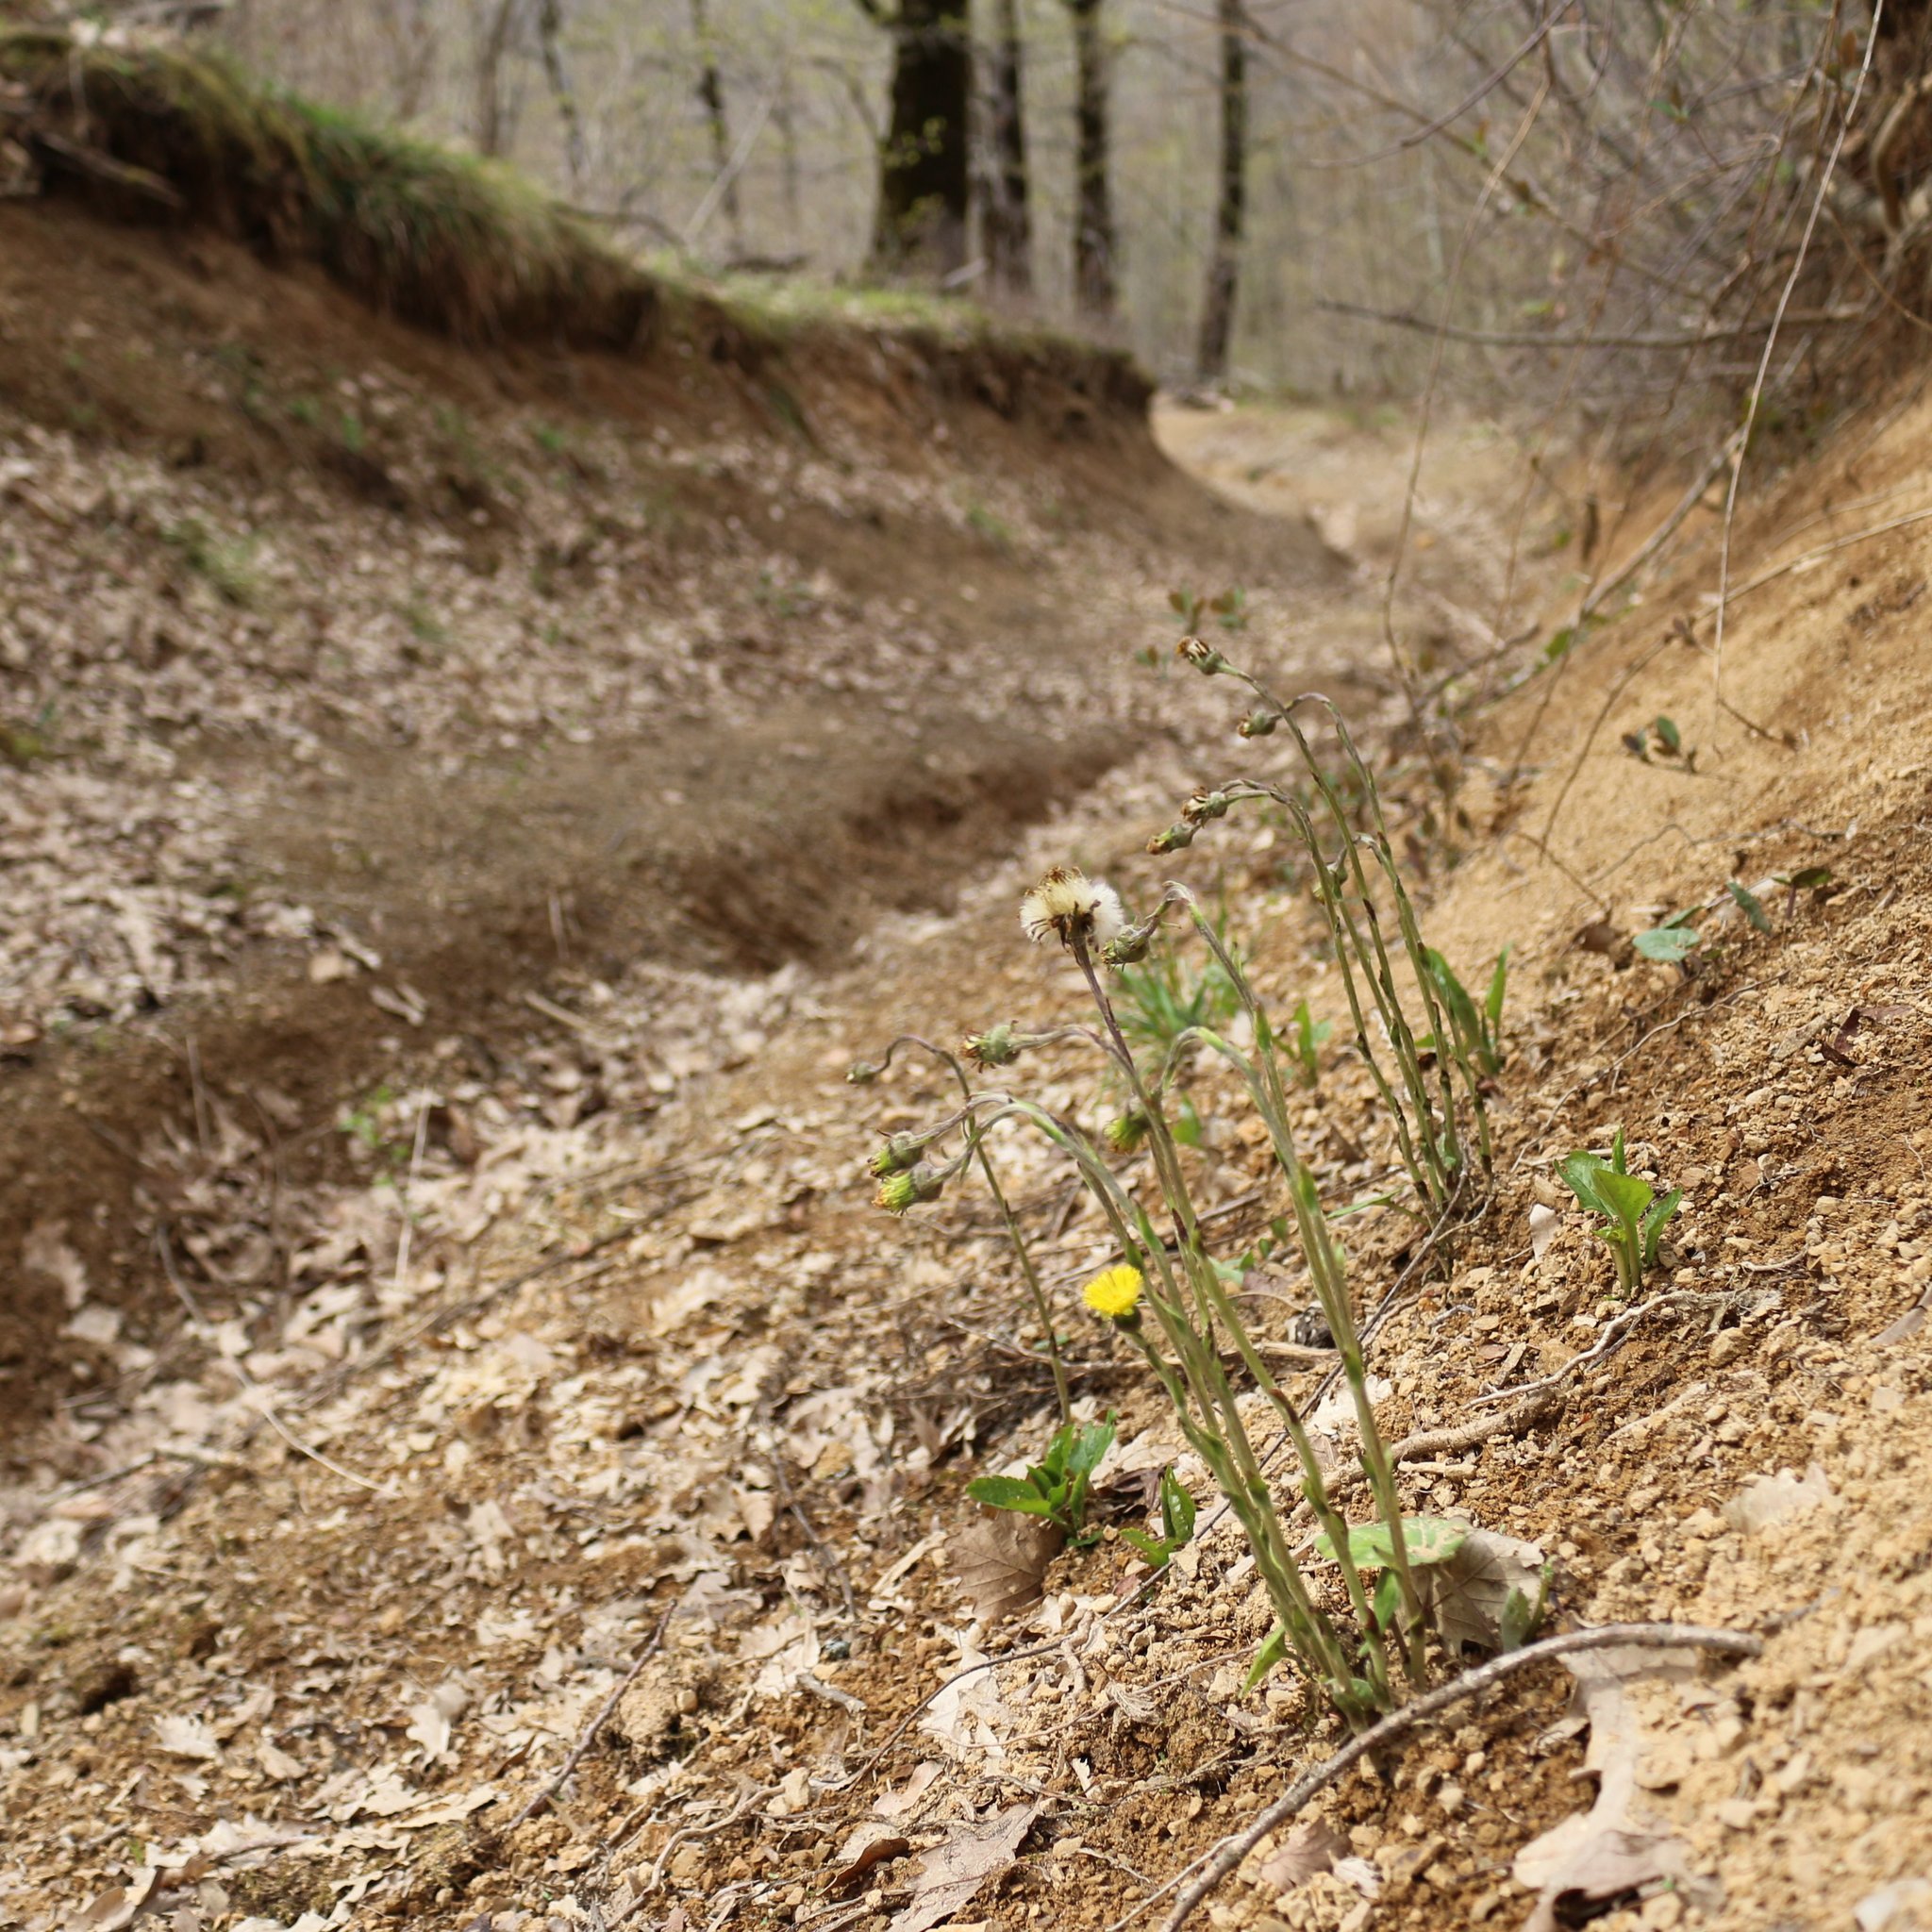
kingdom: Plantae
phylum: Tracheophyta
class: Magnoliopsida
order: Asterales
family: Asteraceae
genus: Tussilago
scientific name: Tussilago farfara
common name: Coltsfoot
